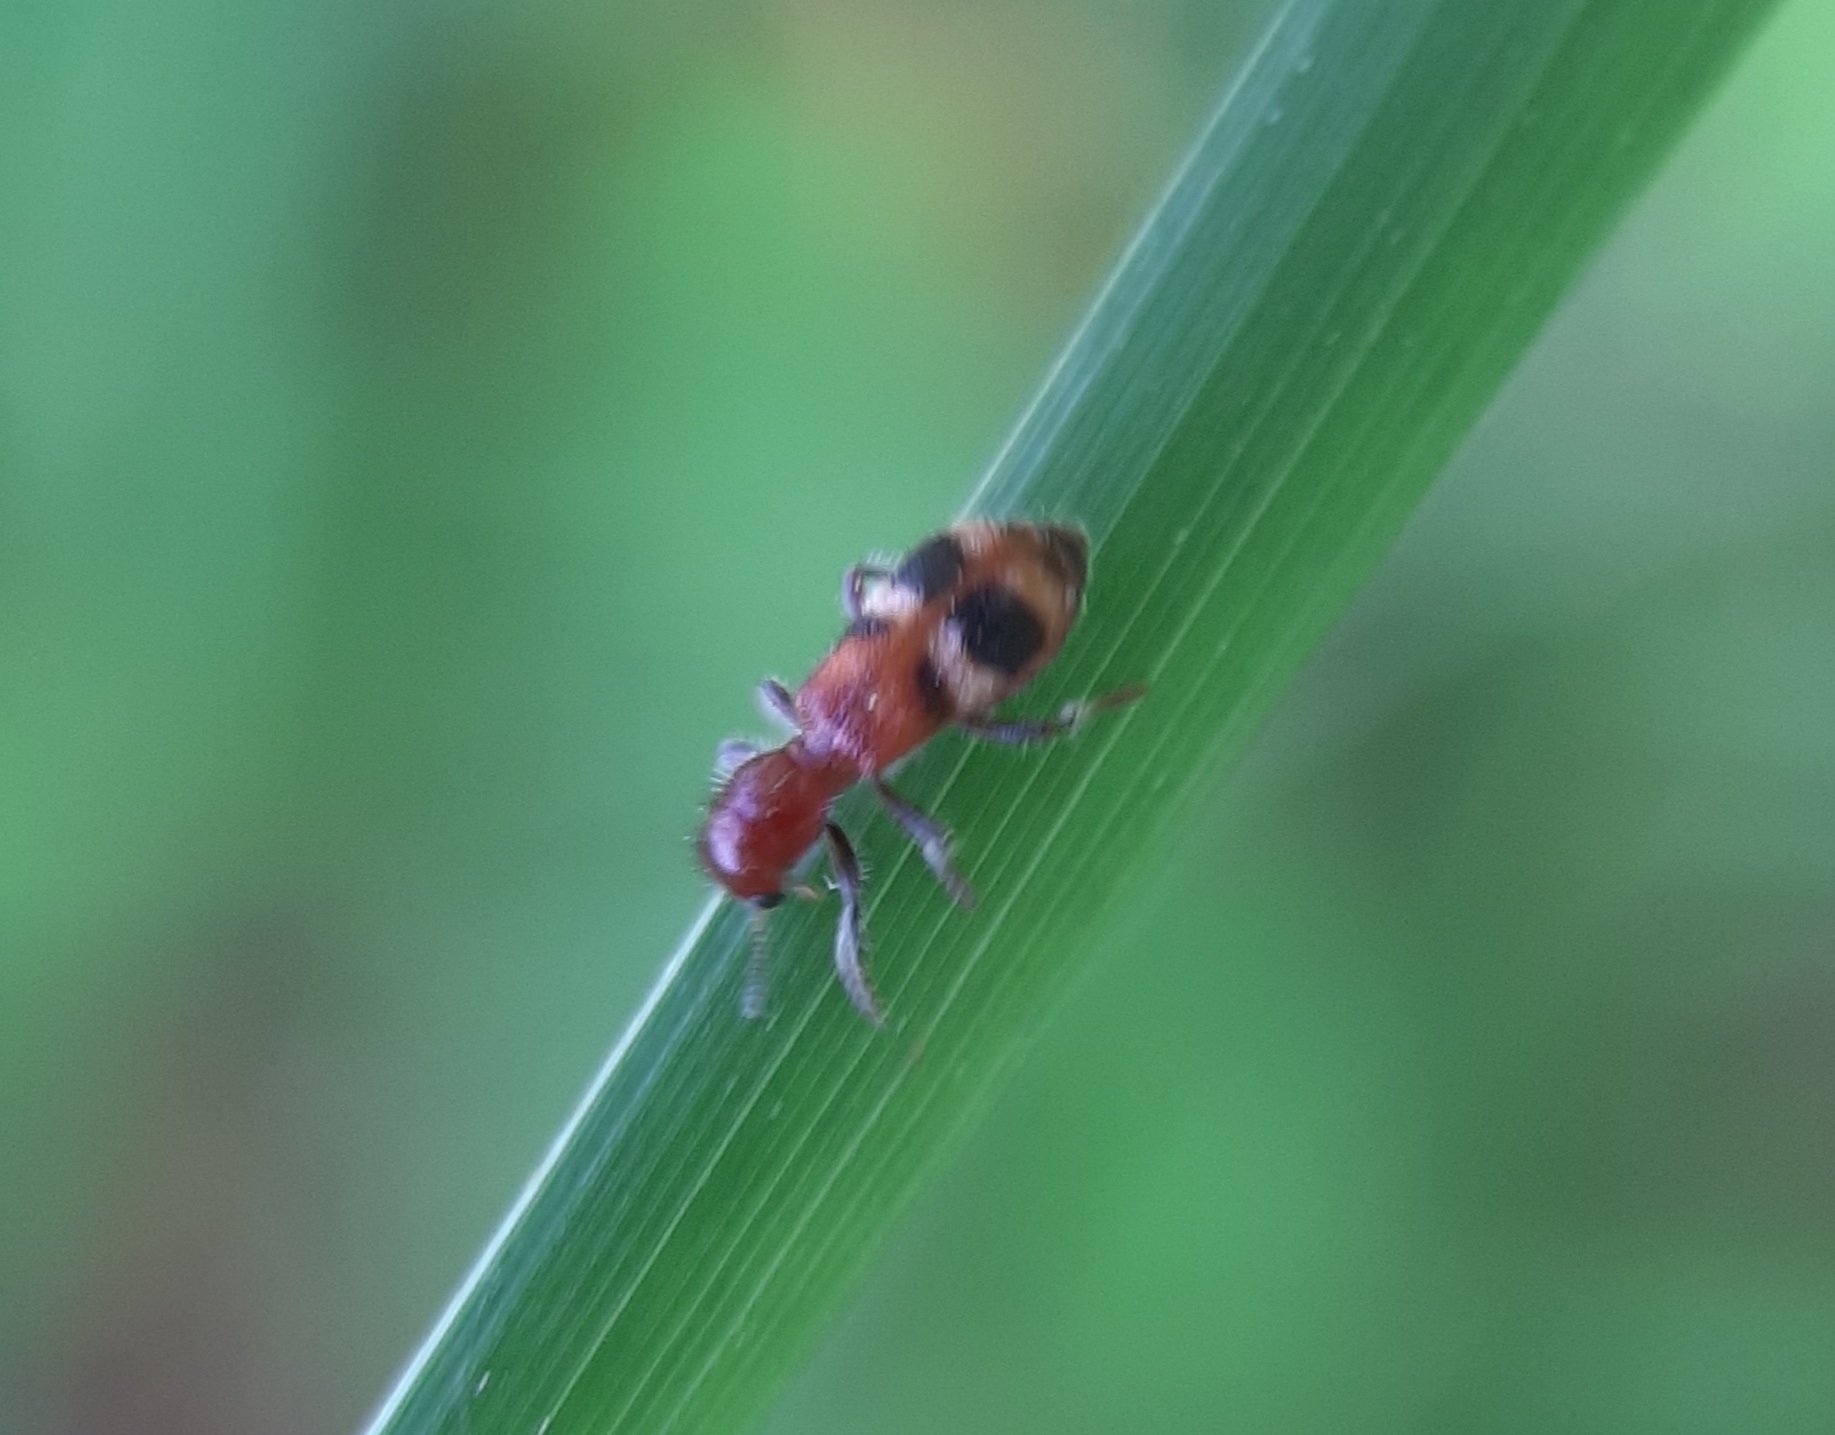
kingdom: Animalia
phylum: Arthropoda
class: Insecta
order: Coleoptera
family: Cleridae
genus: Enoclerus
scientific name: Enoclerus rosmarus
